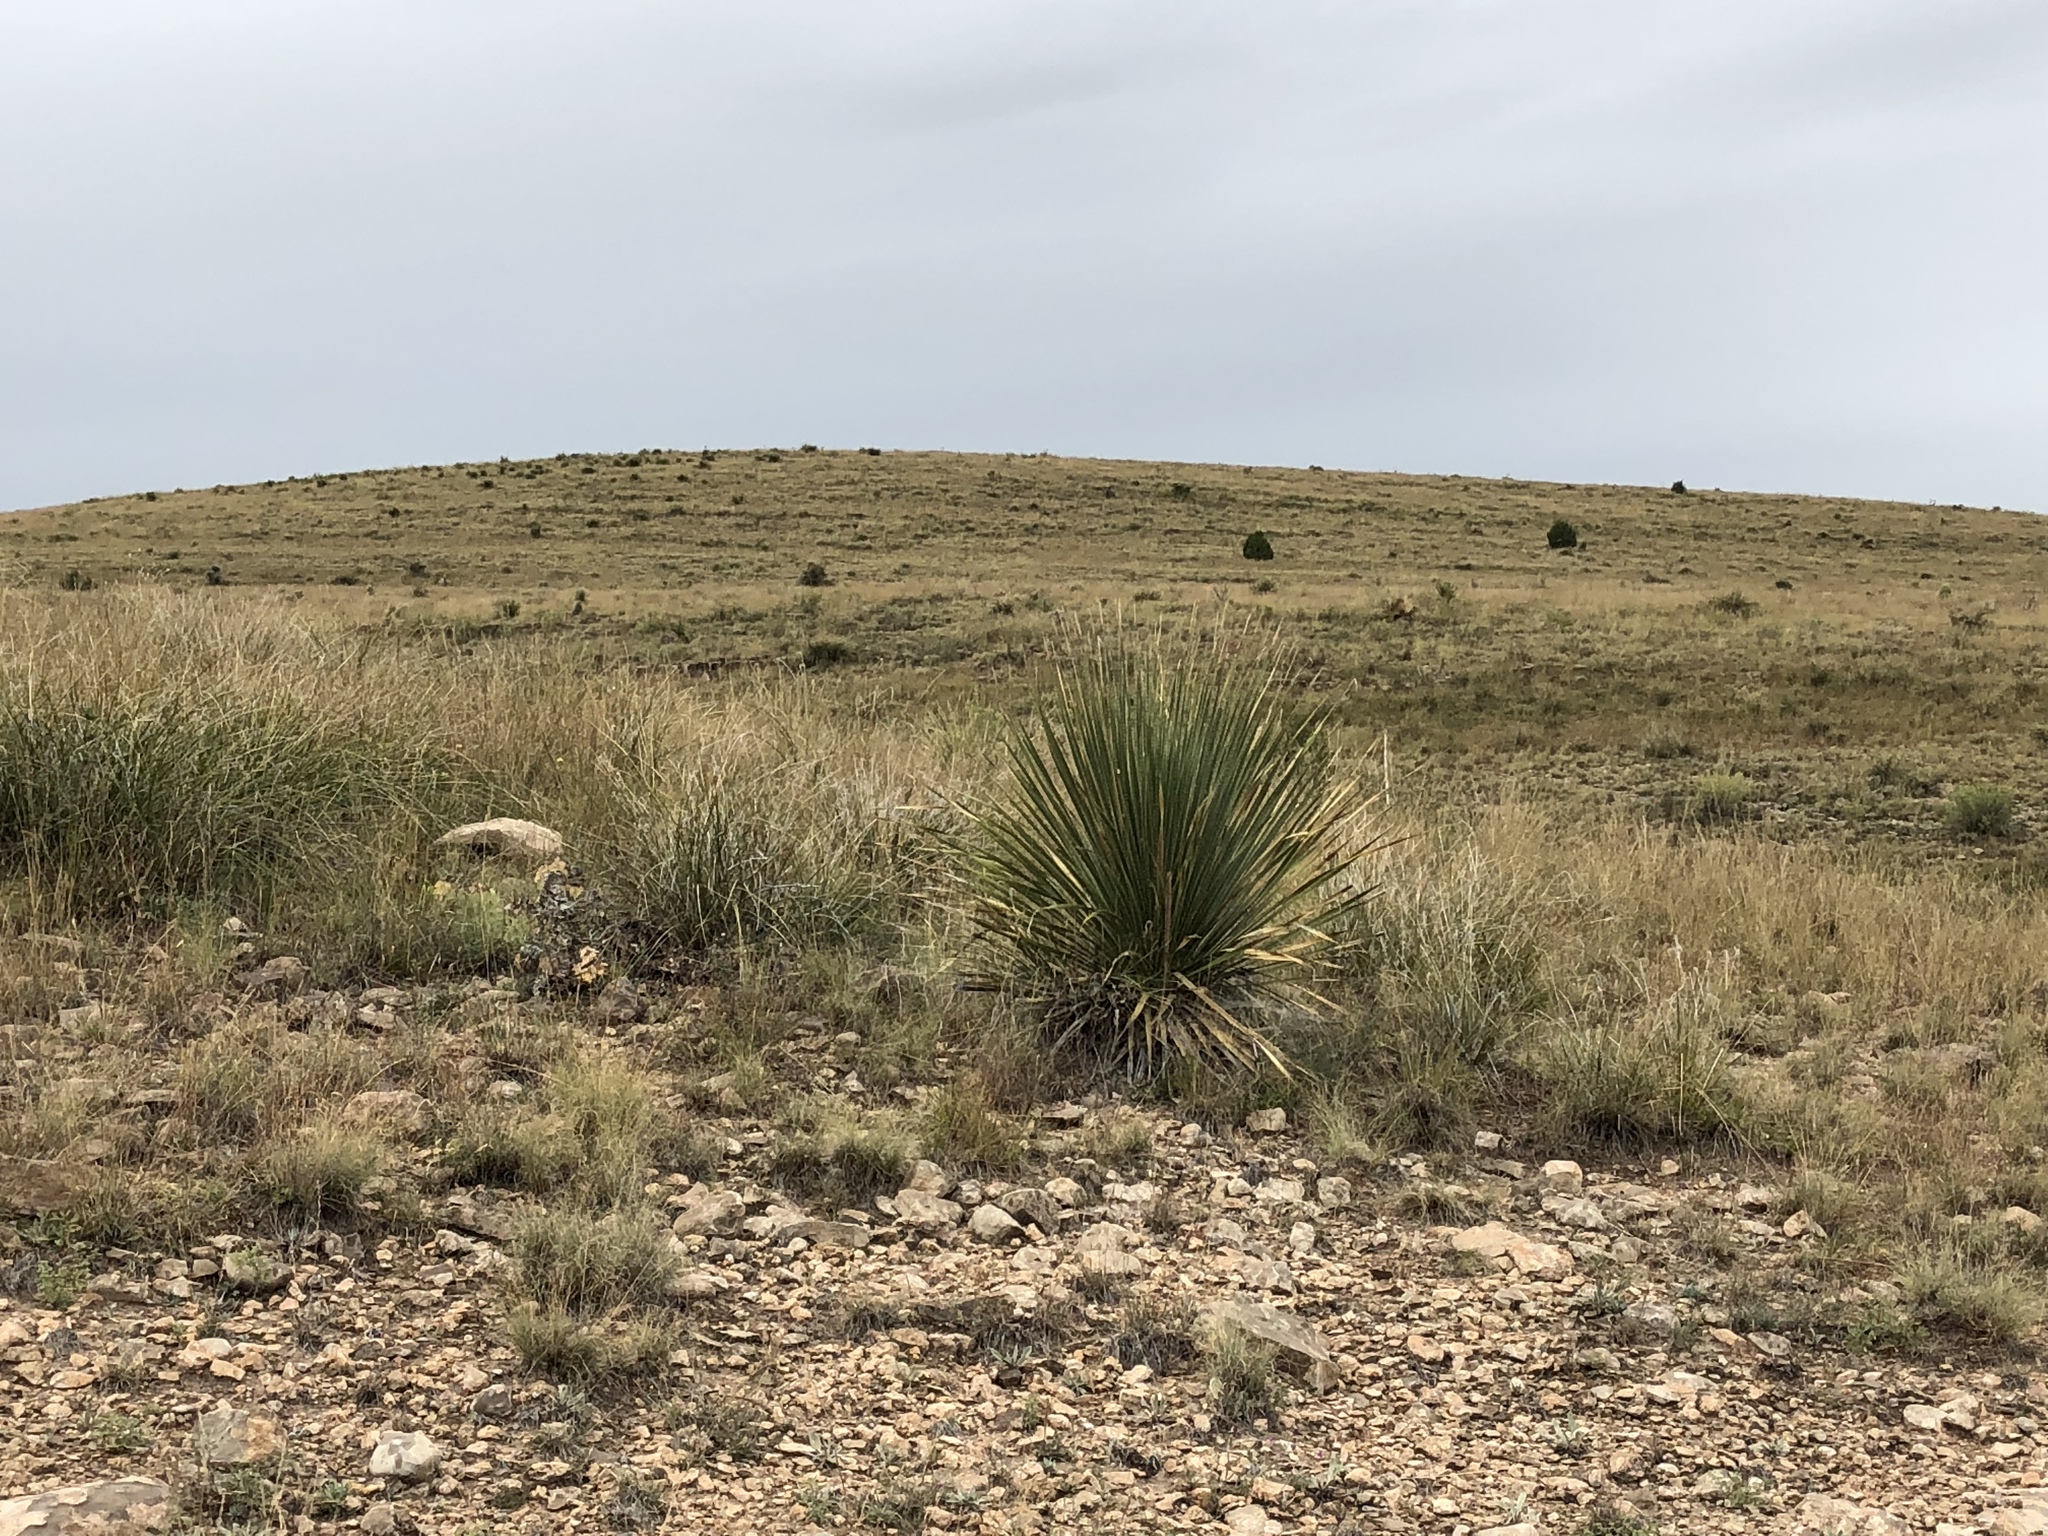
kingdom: Plantae
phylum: Tracheophyta
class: Liliopsida
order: Asparagales
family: Asparagaceae
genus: Dasylirion
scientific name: Dasylirion wheeleri
